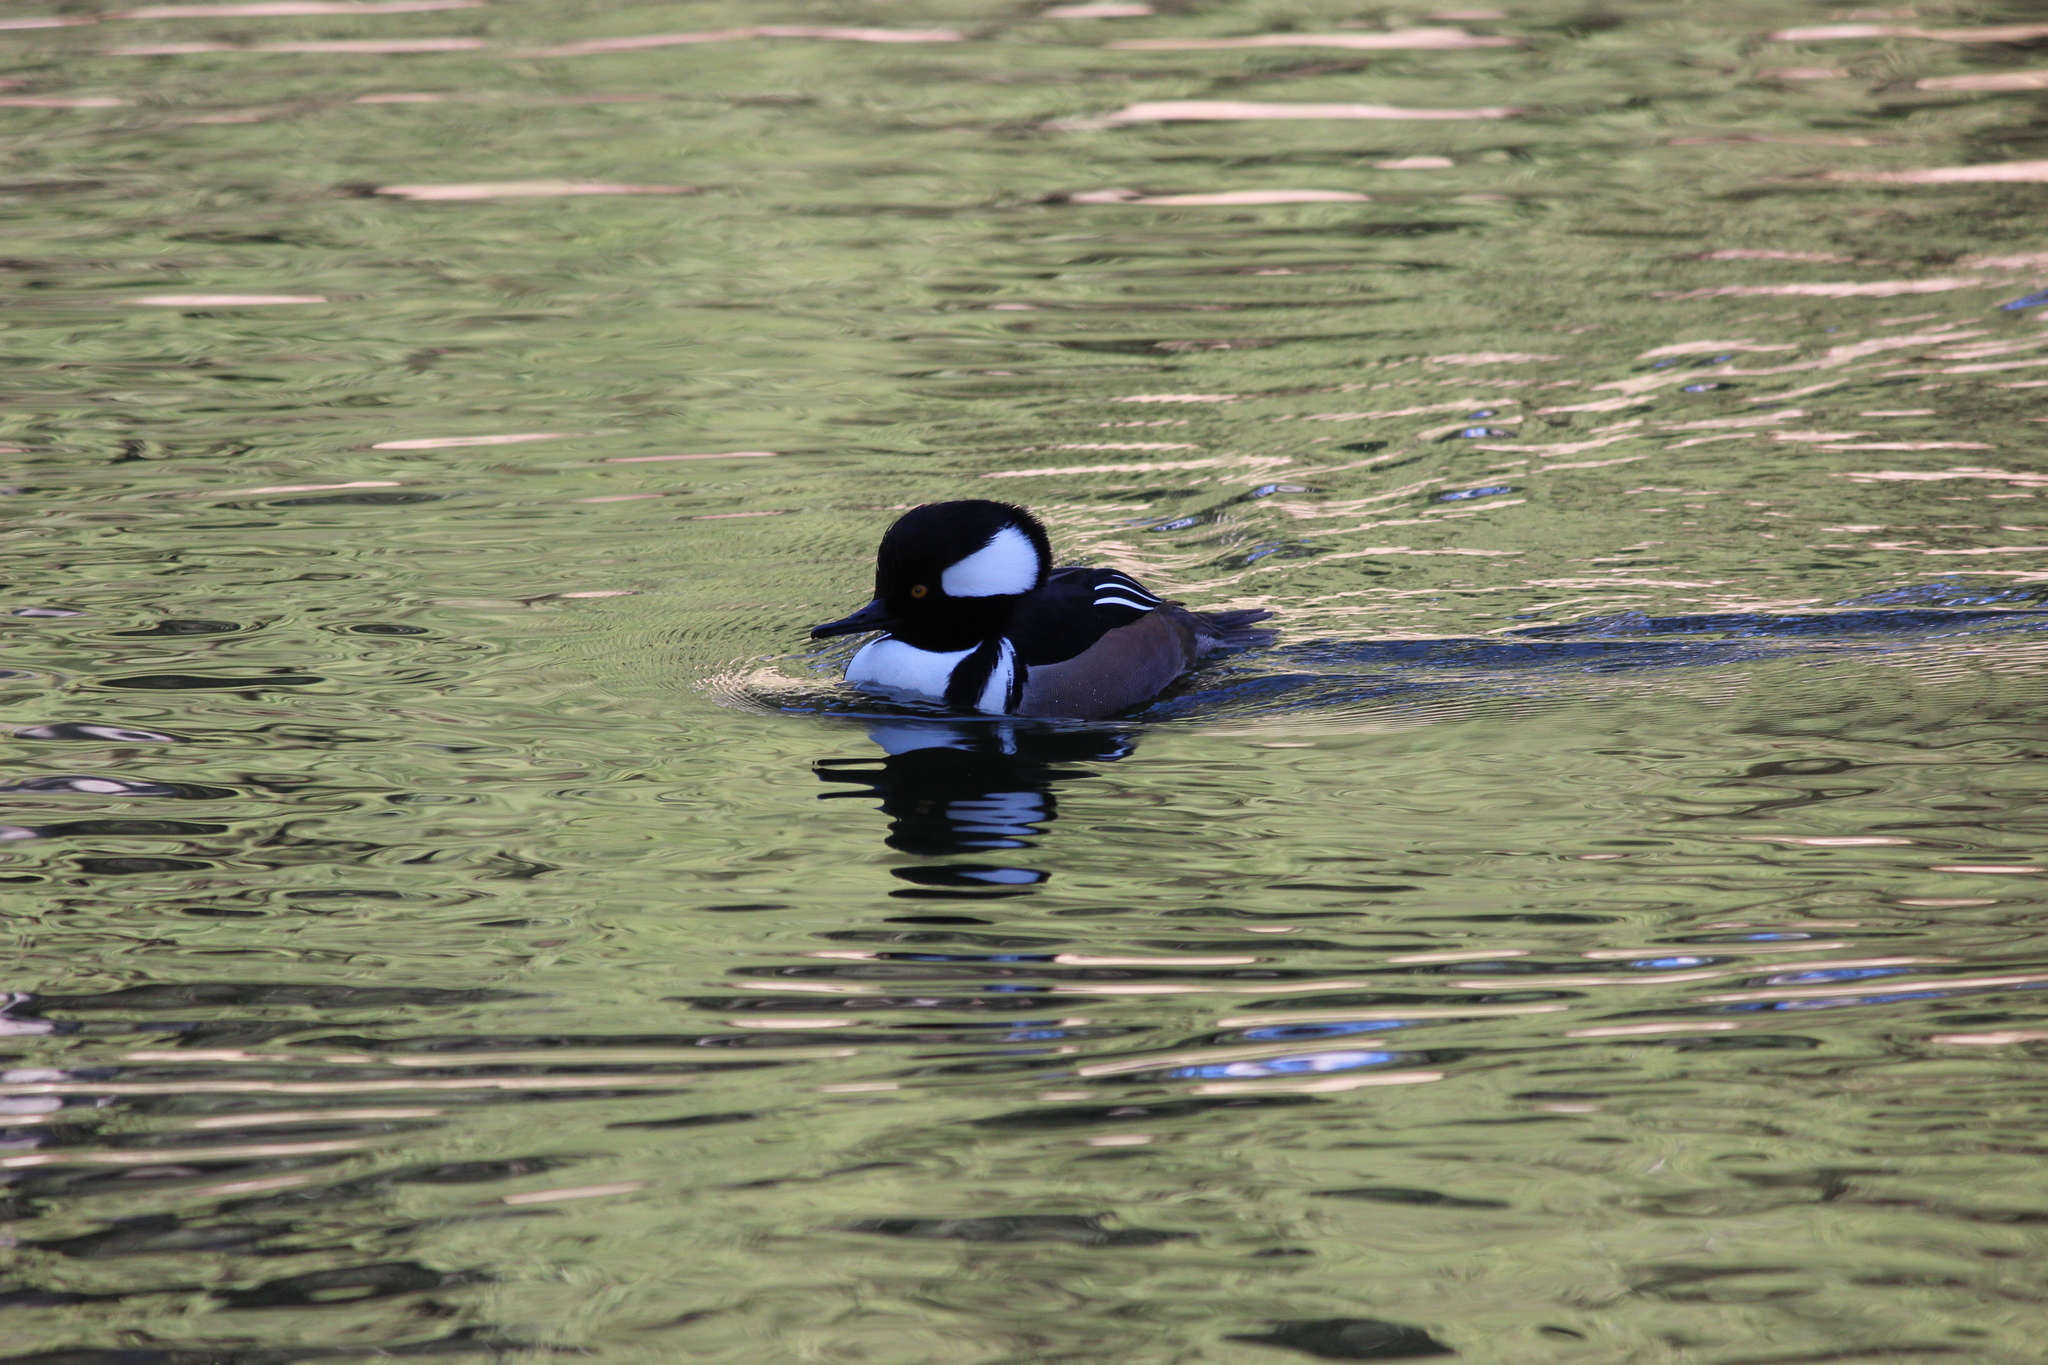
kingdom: Animalia
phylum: Chordata
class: Aves
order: Anseriformes
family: Anatidae
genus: Lophodytes
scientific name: Lophodytes cucullatus
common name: Hooded merganser
